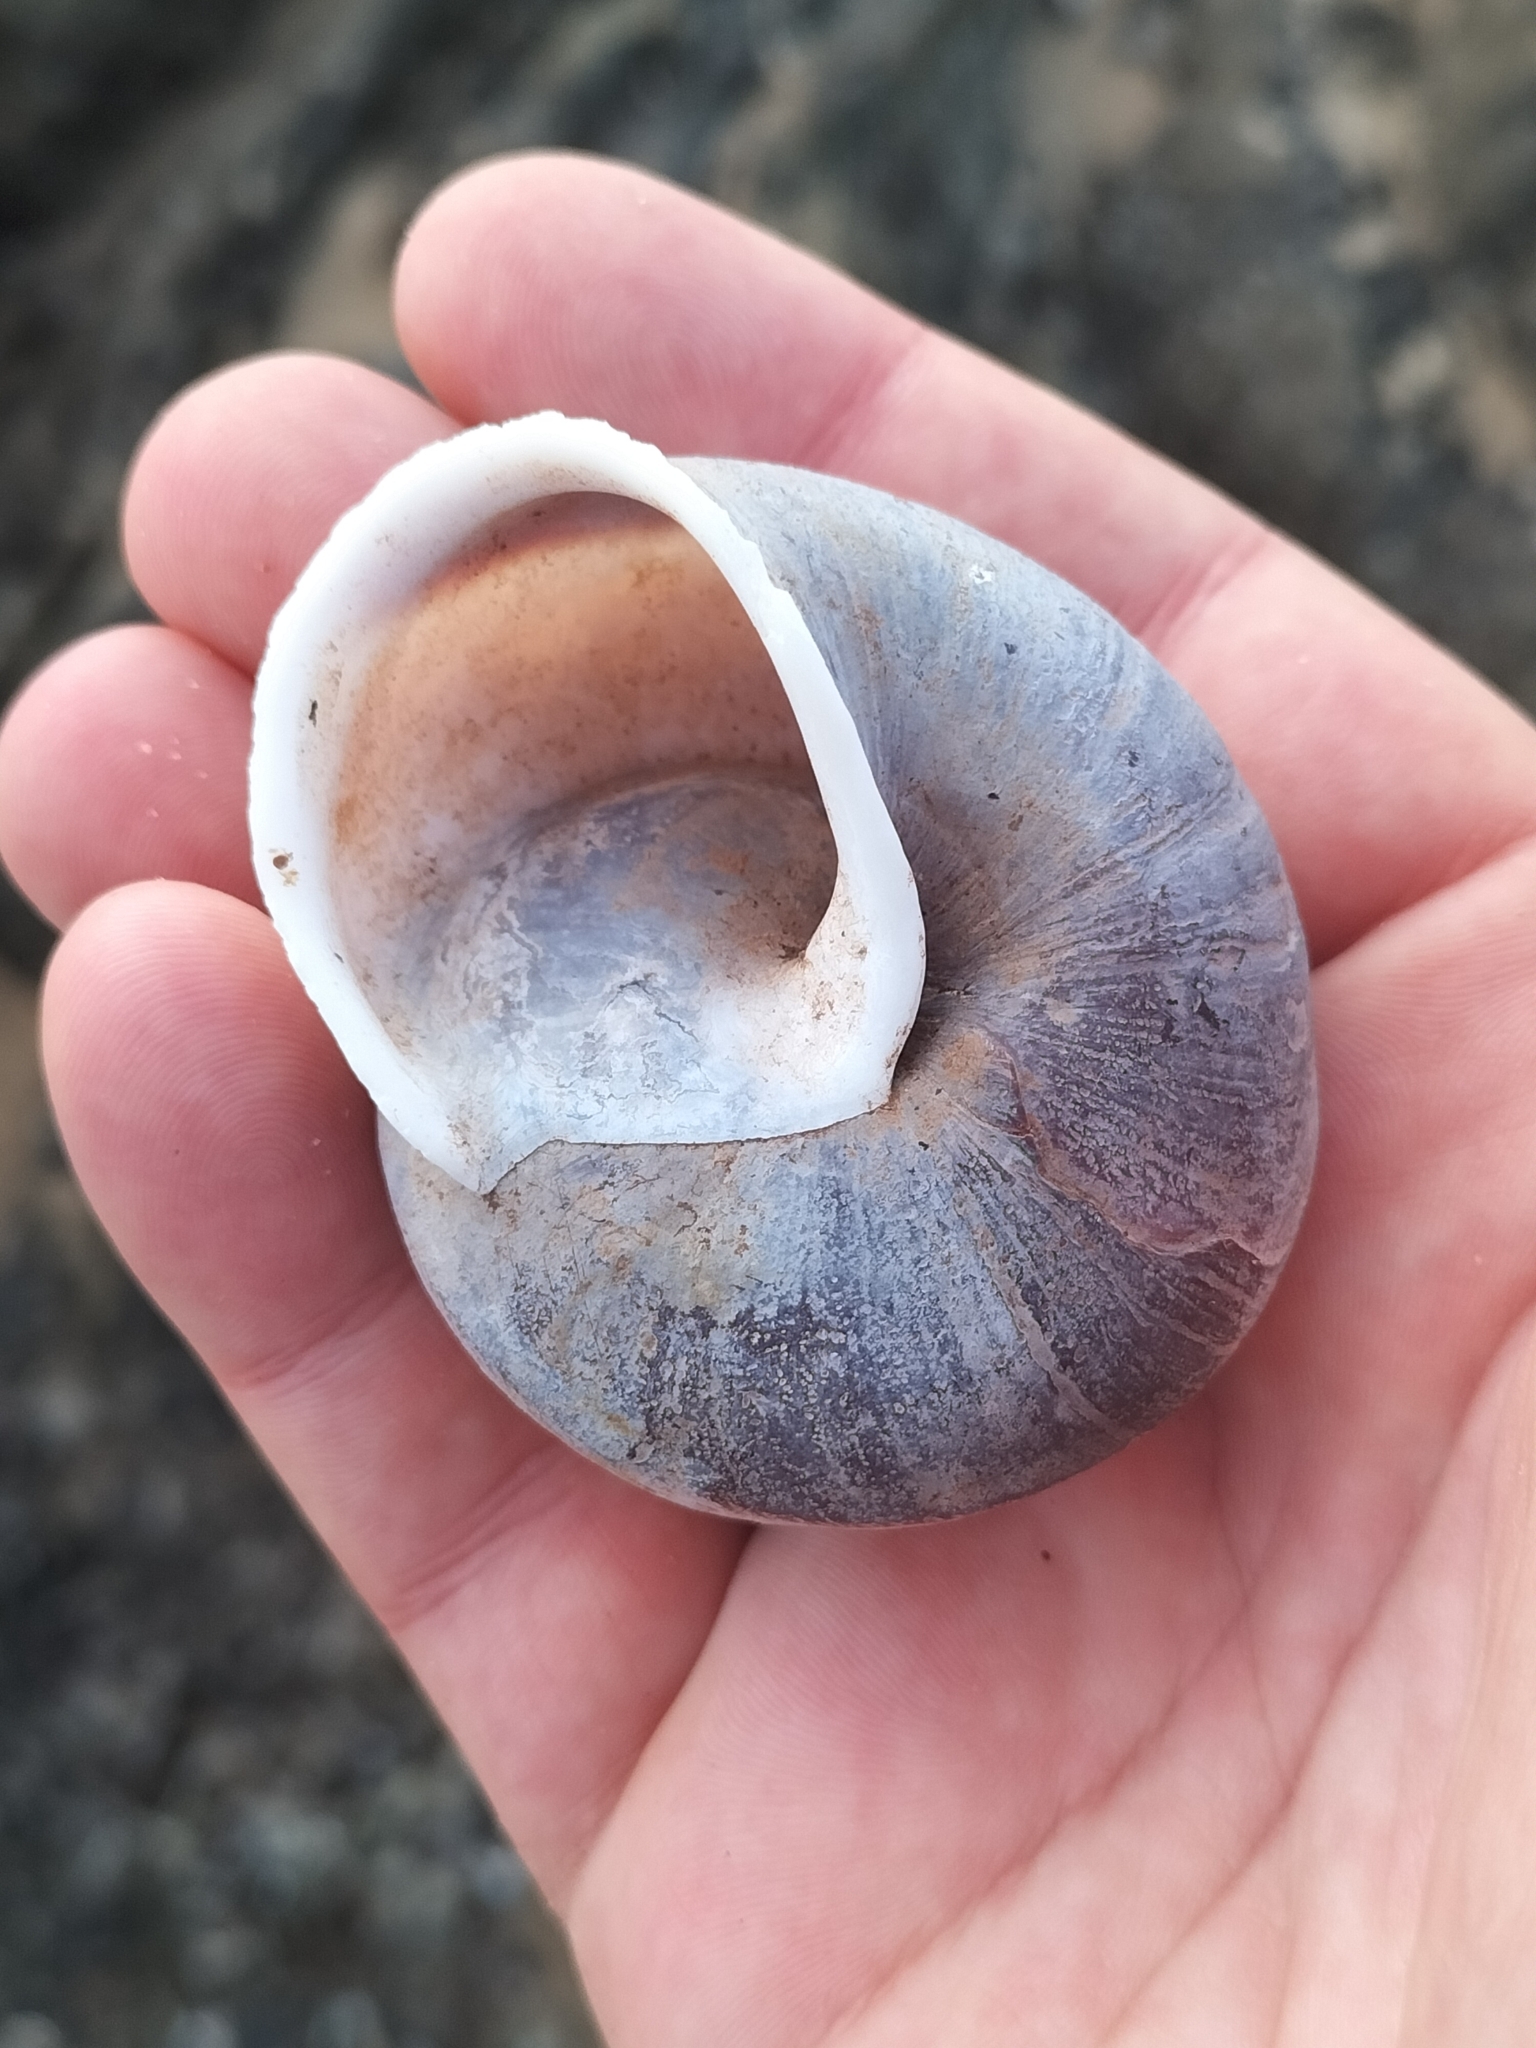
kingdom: Animalia
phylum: Mollusca
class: Gastropoda
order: Stylommatophora
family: Camaenidae
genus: Hadra
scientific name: Hadra webbi
